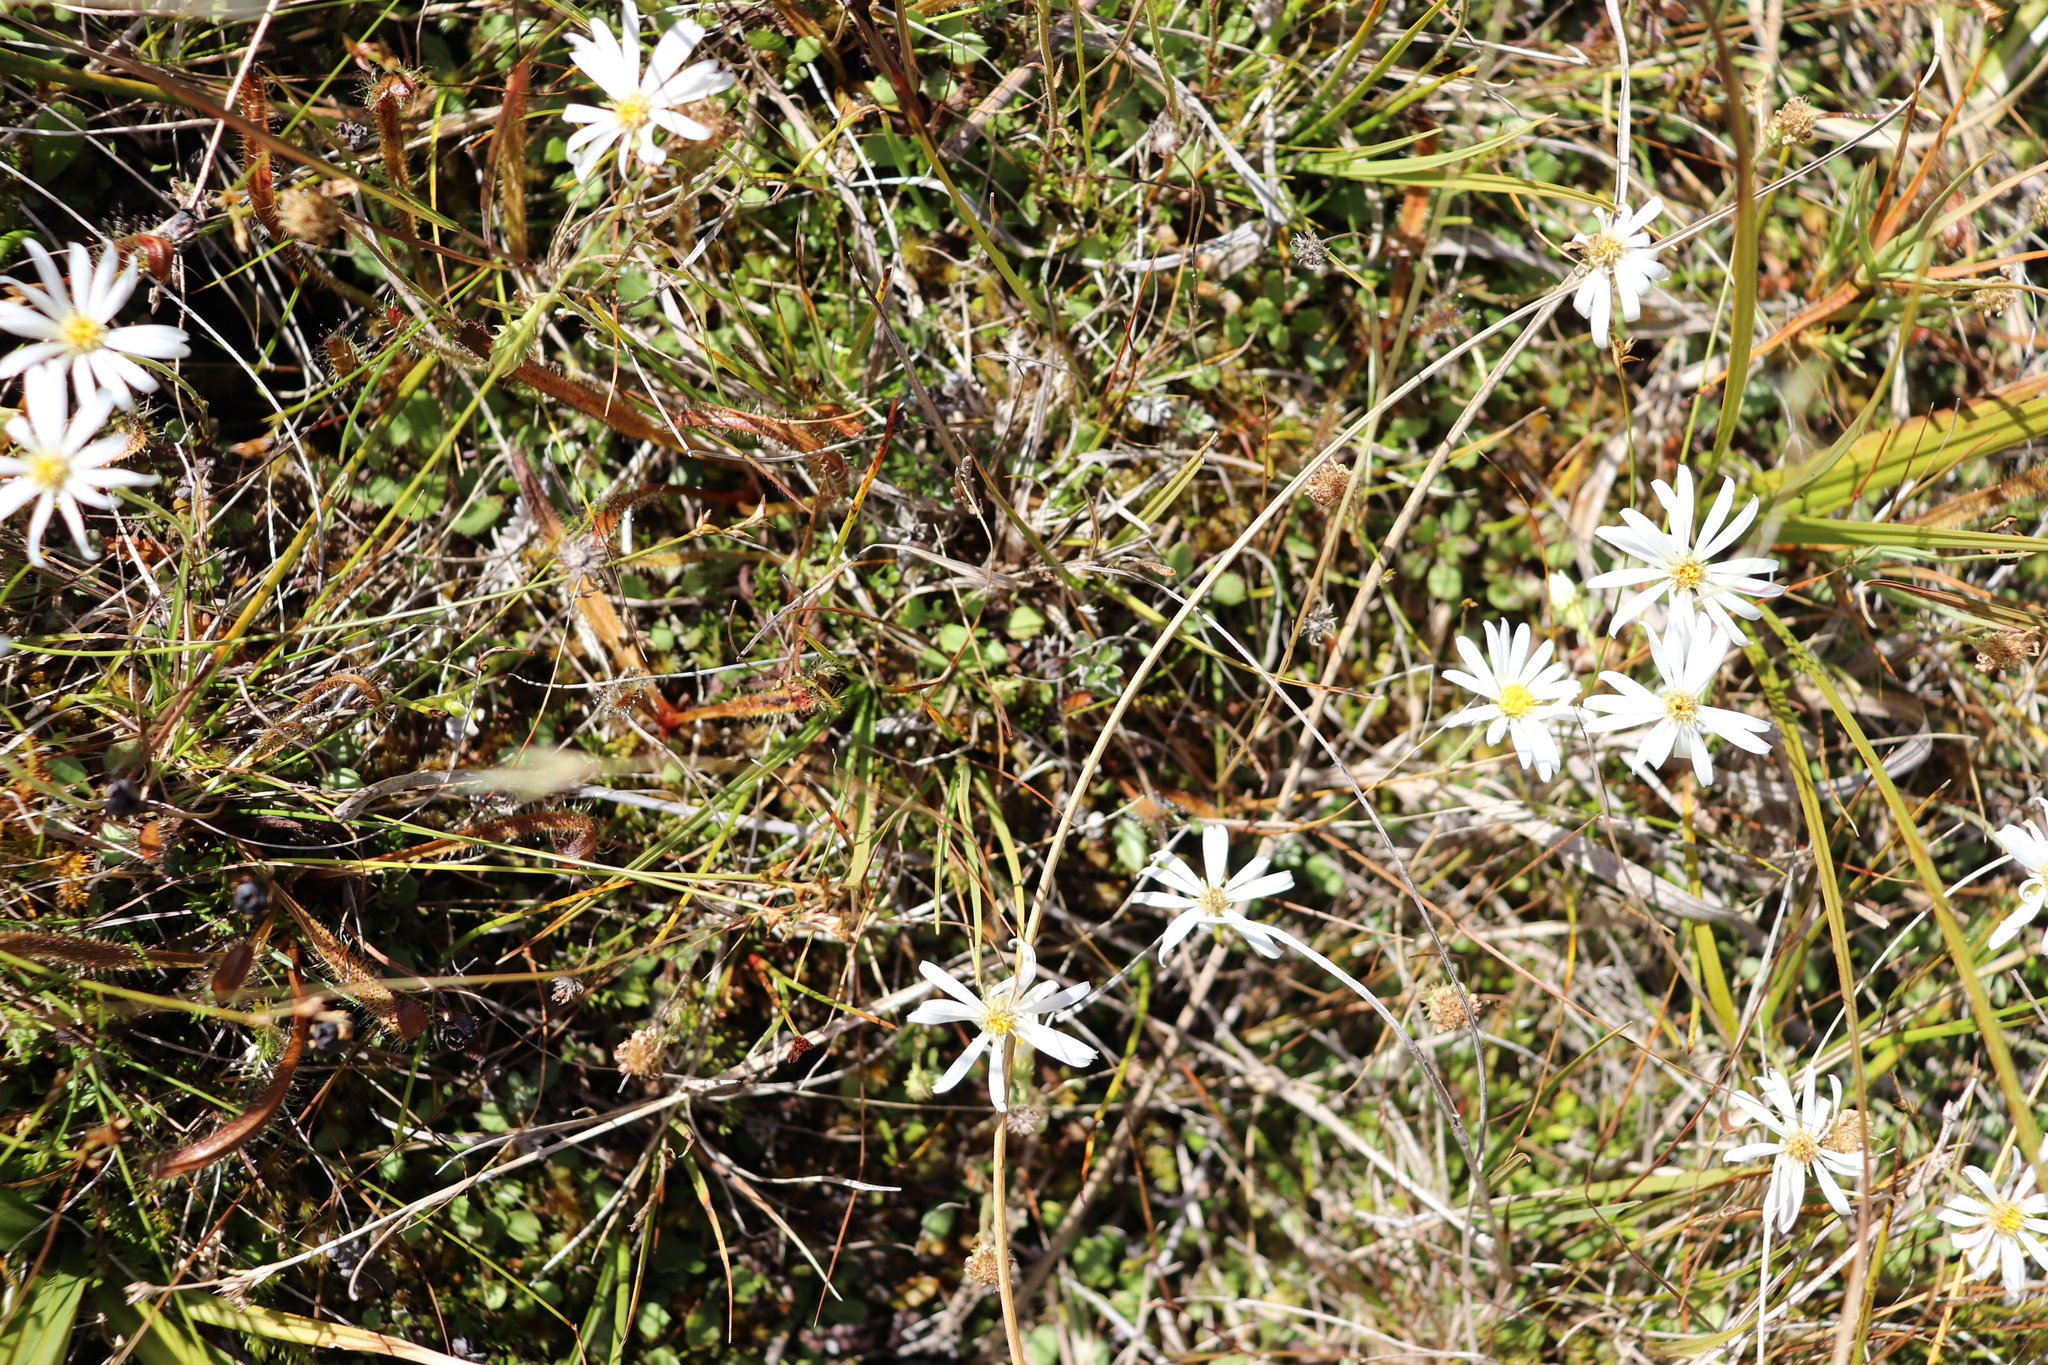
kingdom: Plantae
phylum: Tracheophyta
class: Magnoliopsida
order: Asterales
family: Asteraceae
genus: Celmisia
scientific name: Celmisia glandulosa
